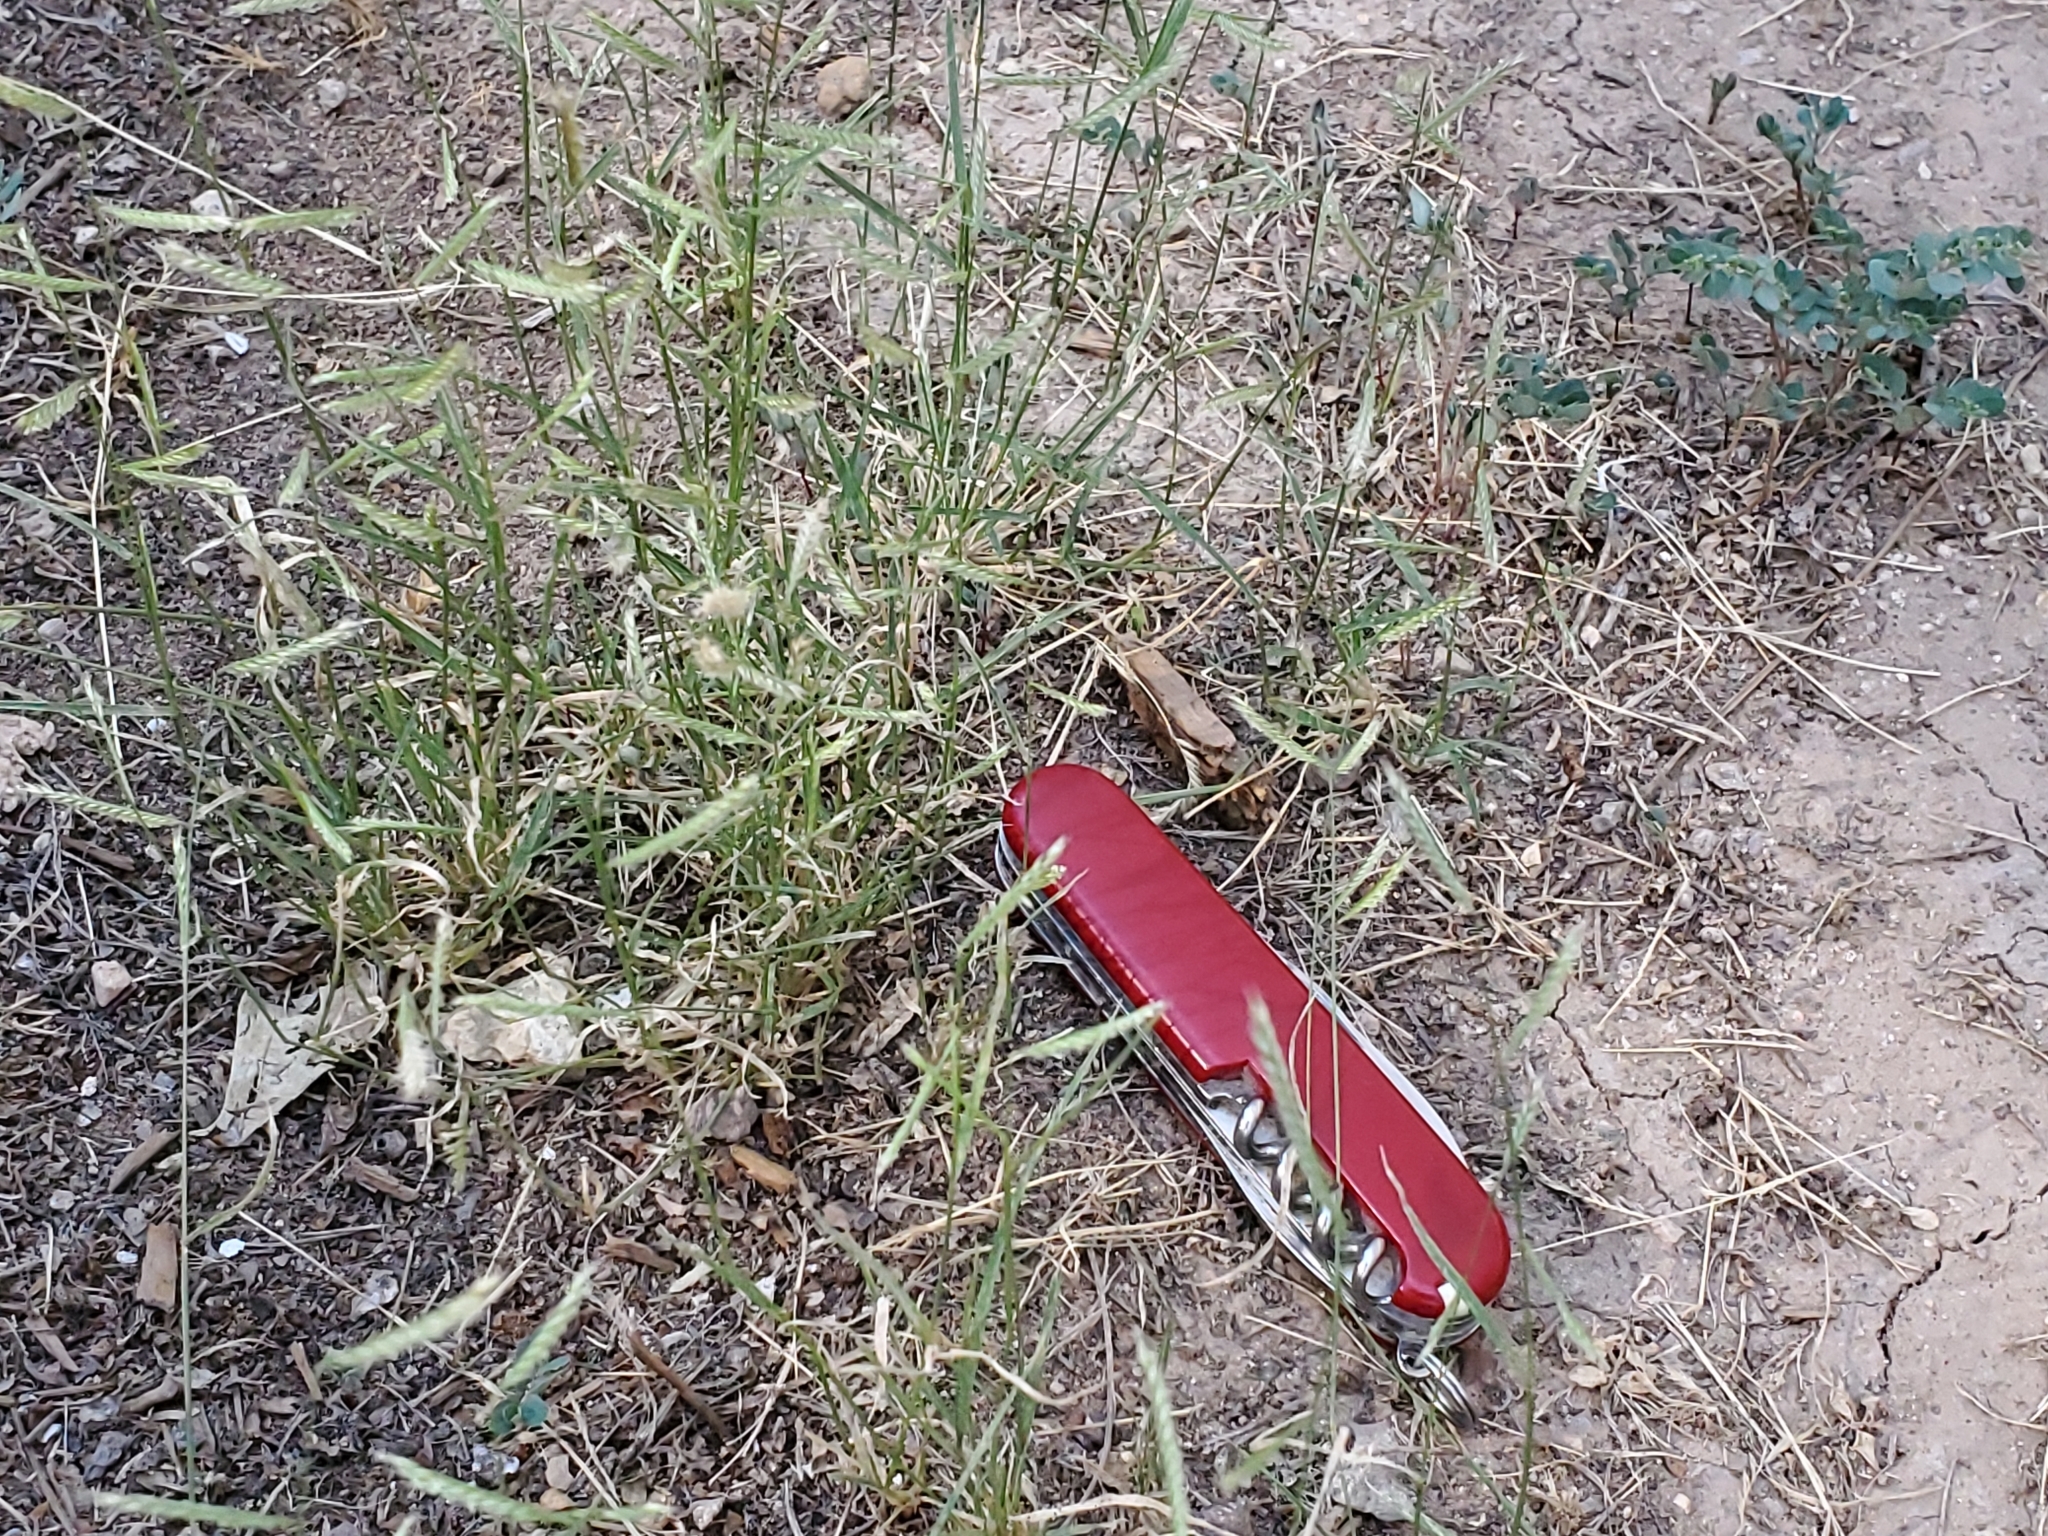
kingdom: Plantae
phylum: Tracheophyta
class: Liliopsida
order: Poales
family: Poaceae
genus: Bouteloua
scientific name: Bouteloua barbata
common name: Six-weeks grama
